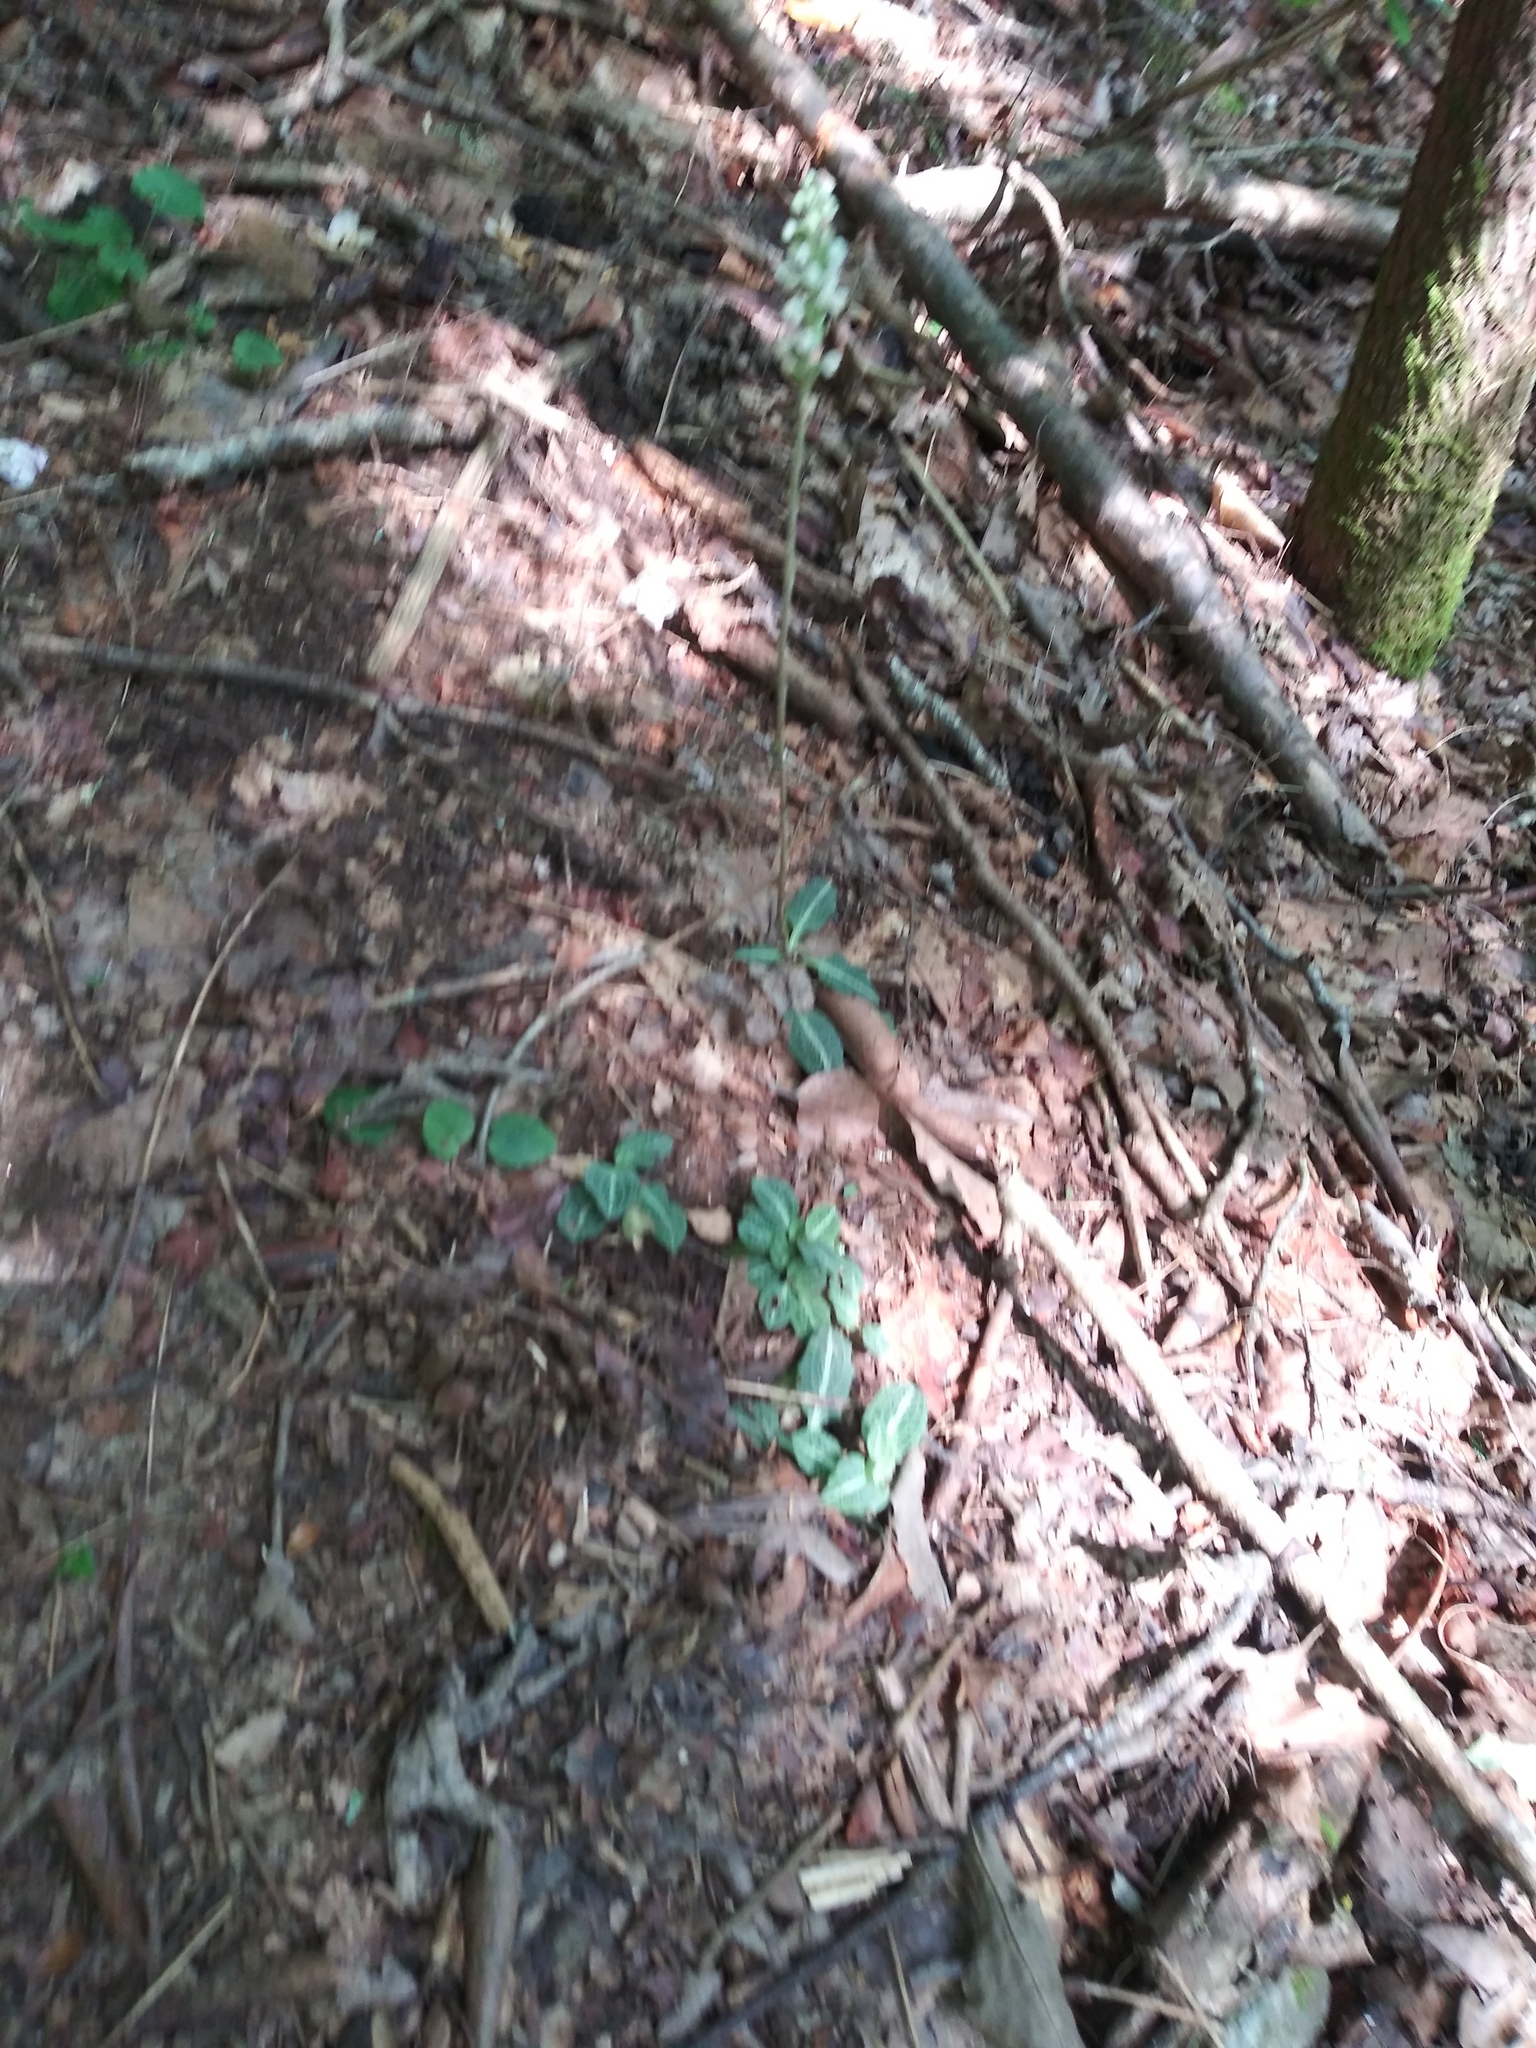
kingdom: Plantae
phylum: Tracheophyta
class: Liliopsida
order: Asparagales
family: Orchidaceae
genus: Goodyera
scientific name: Goodyera pubescens
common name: Downy rattlesnake-plantain
